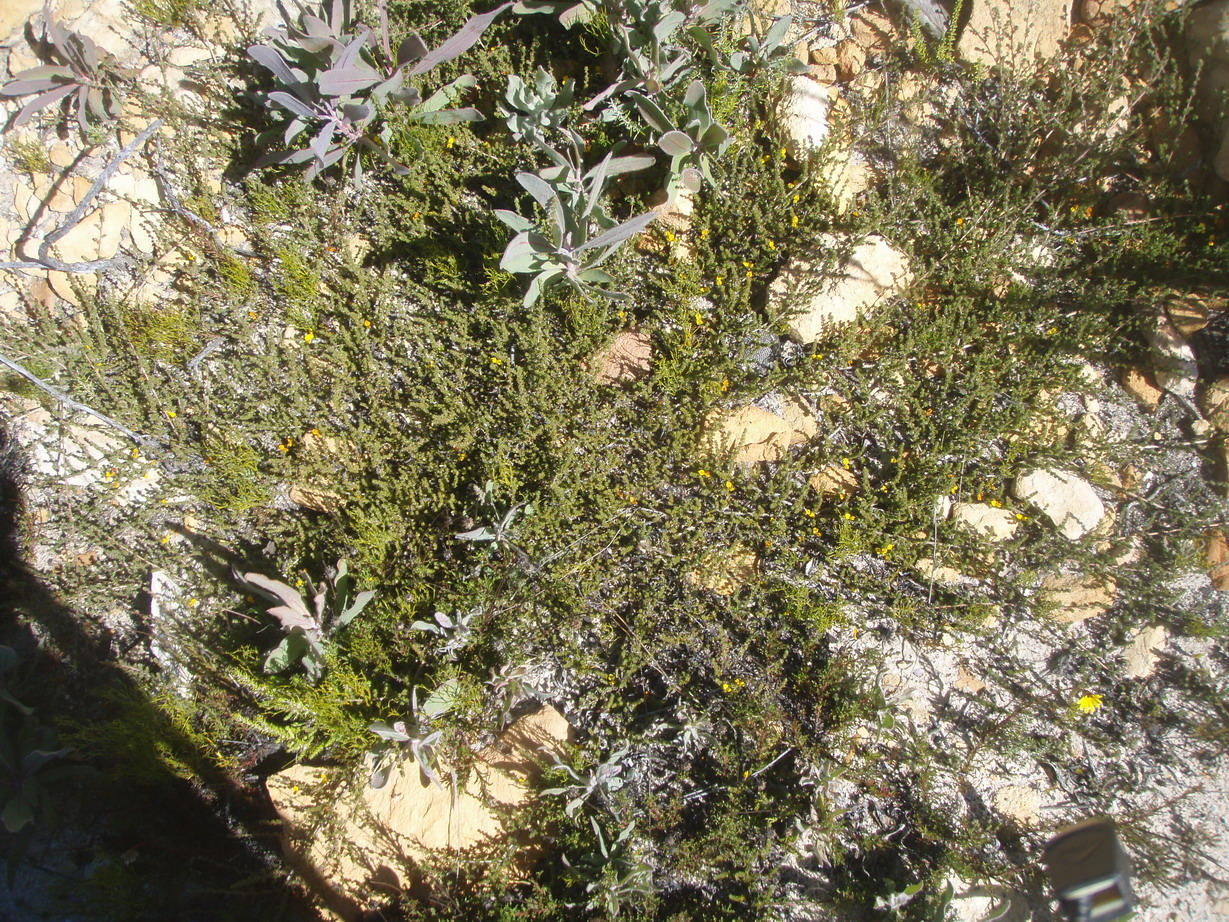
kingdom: Plantae
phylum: Tracheophyta
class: Magnoliopsida
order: Fabales
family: Fabaceae
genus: Aspalathus
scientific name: Aspalathus rubens
